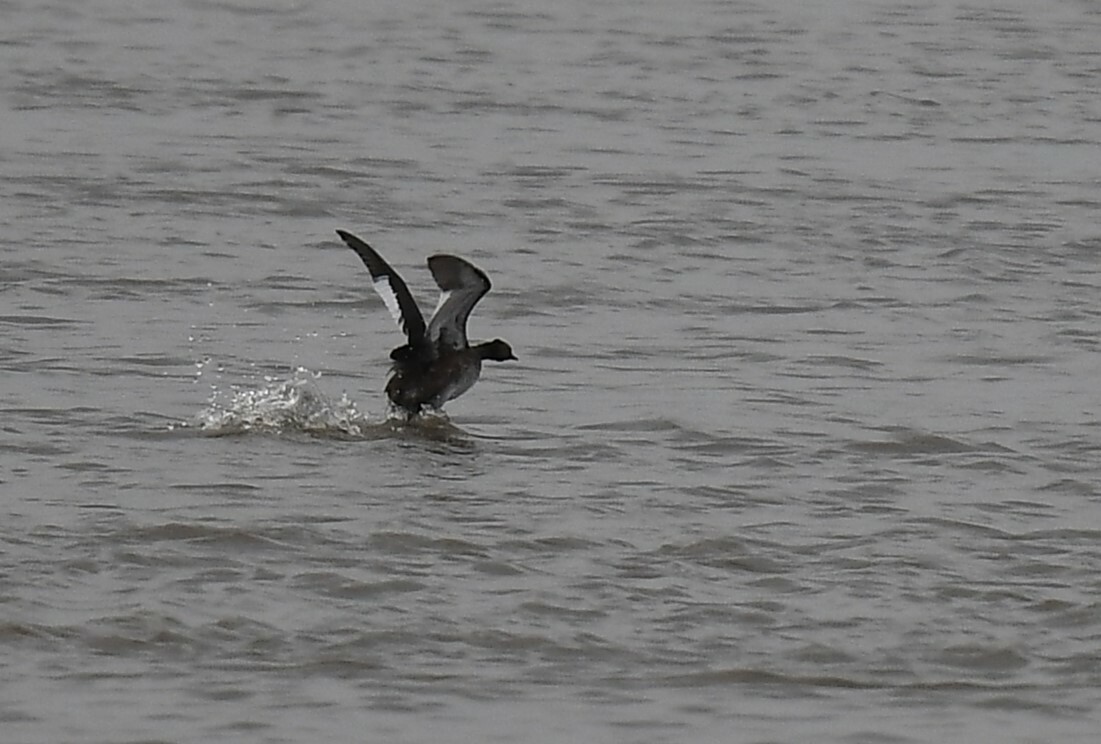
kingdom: Animalia
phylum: Chordata
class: Aves
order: Podicipediformes
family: Podicipedidae
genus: Podiceps
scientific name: Podiceps nigricollis
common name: Black-necked grebe
